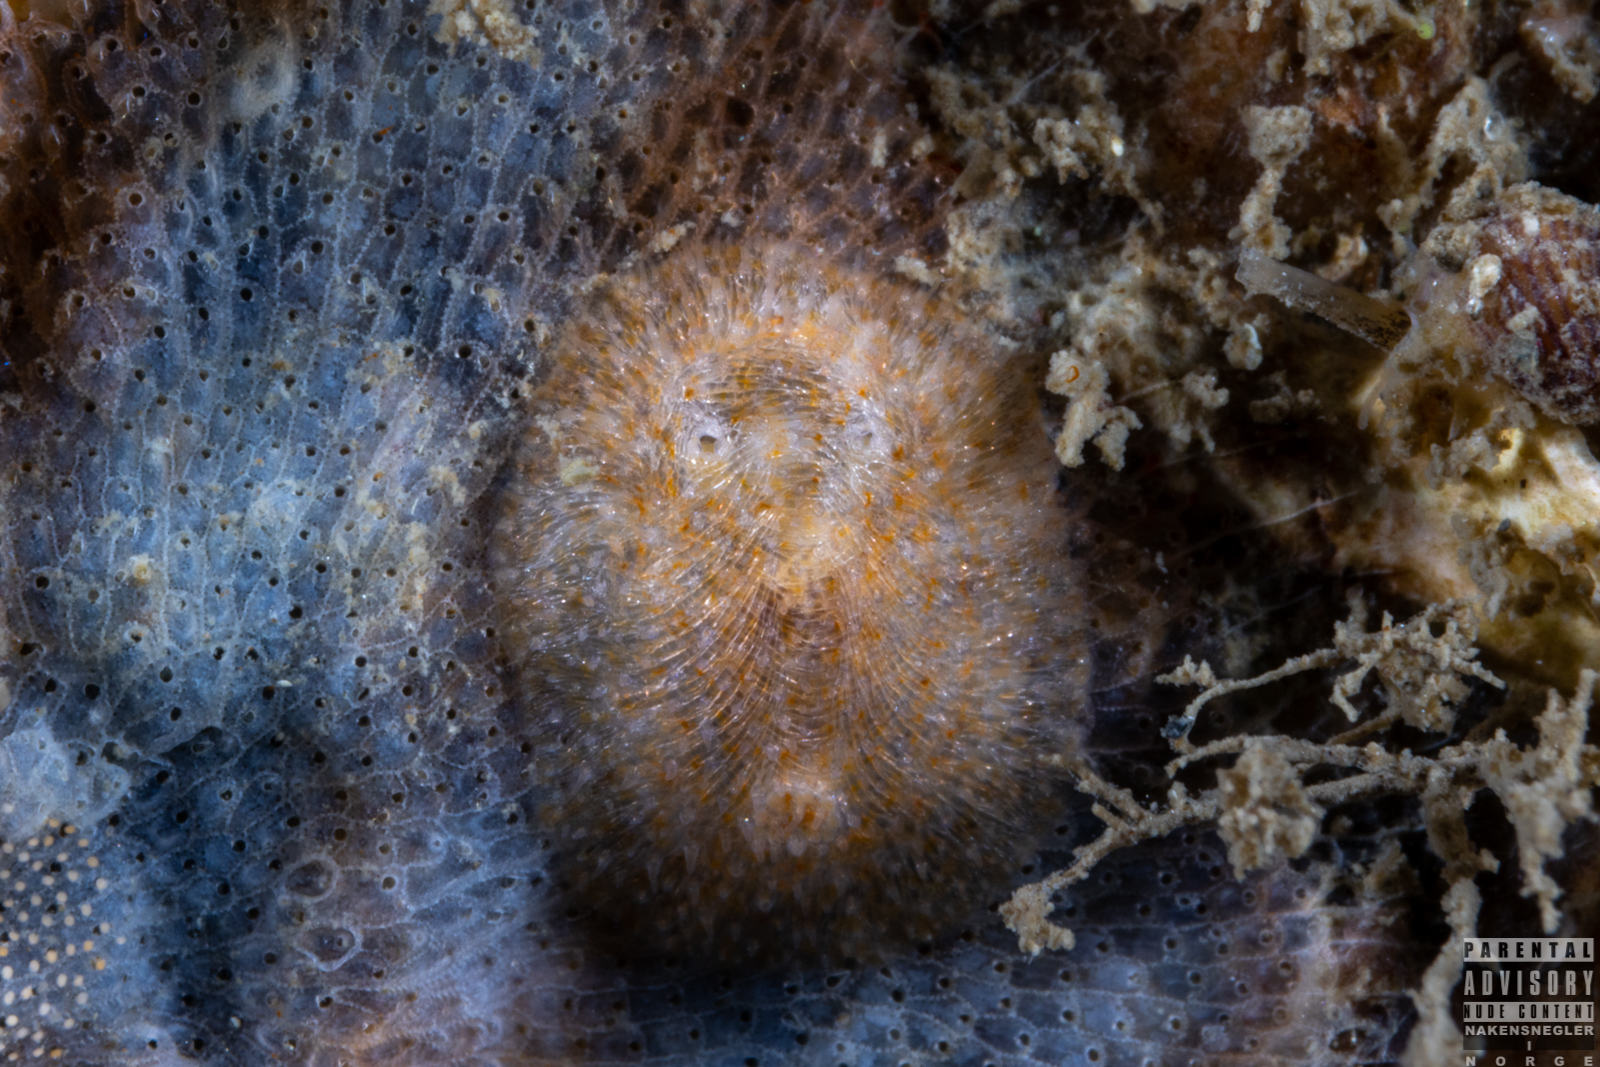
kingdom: Animalia
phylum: Mollusca
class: Gastropoda
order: Nudibranchia
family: Onchidorididae
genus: Idaliadoris
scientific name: Idaliadoris depressa
